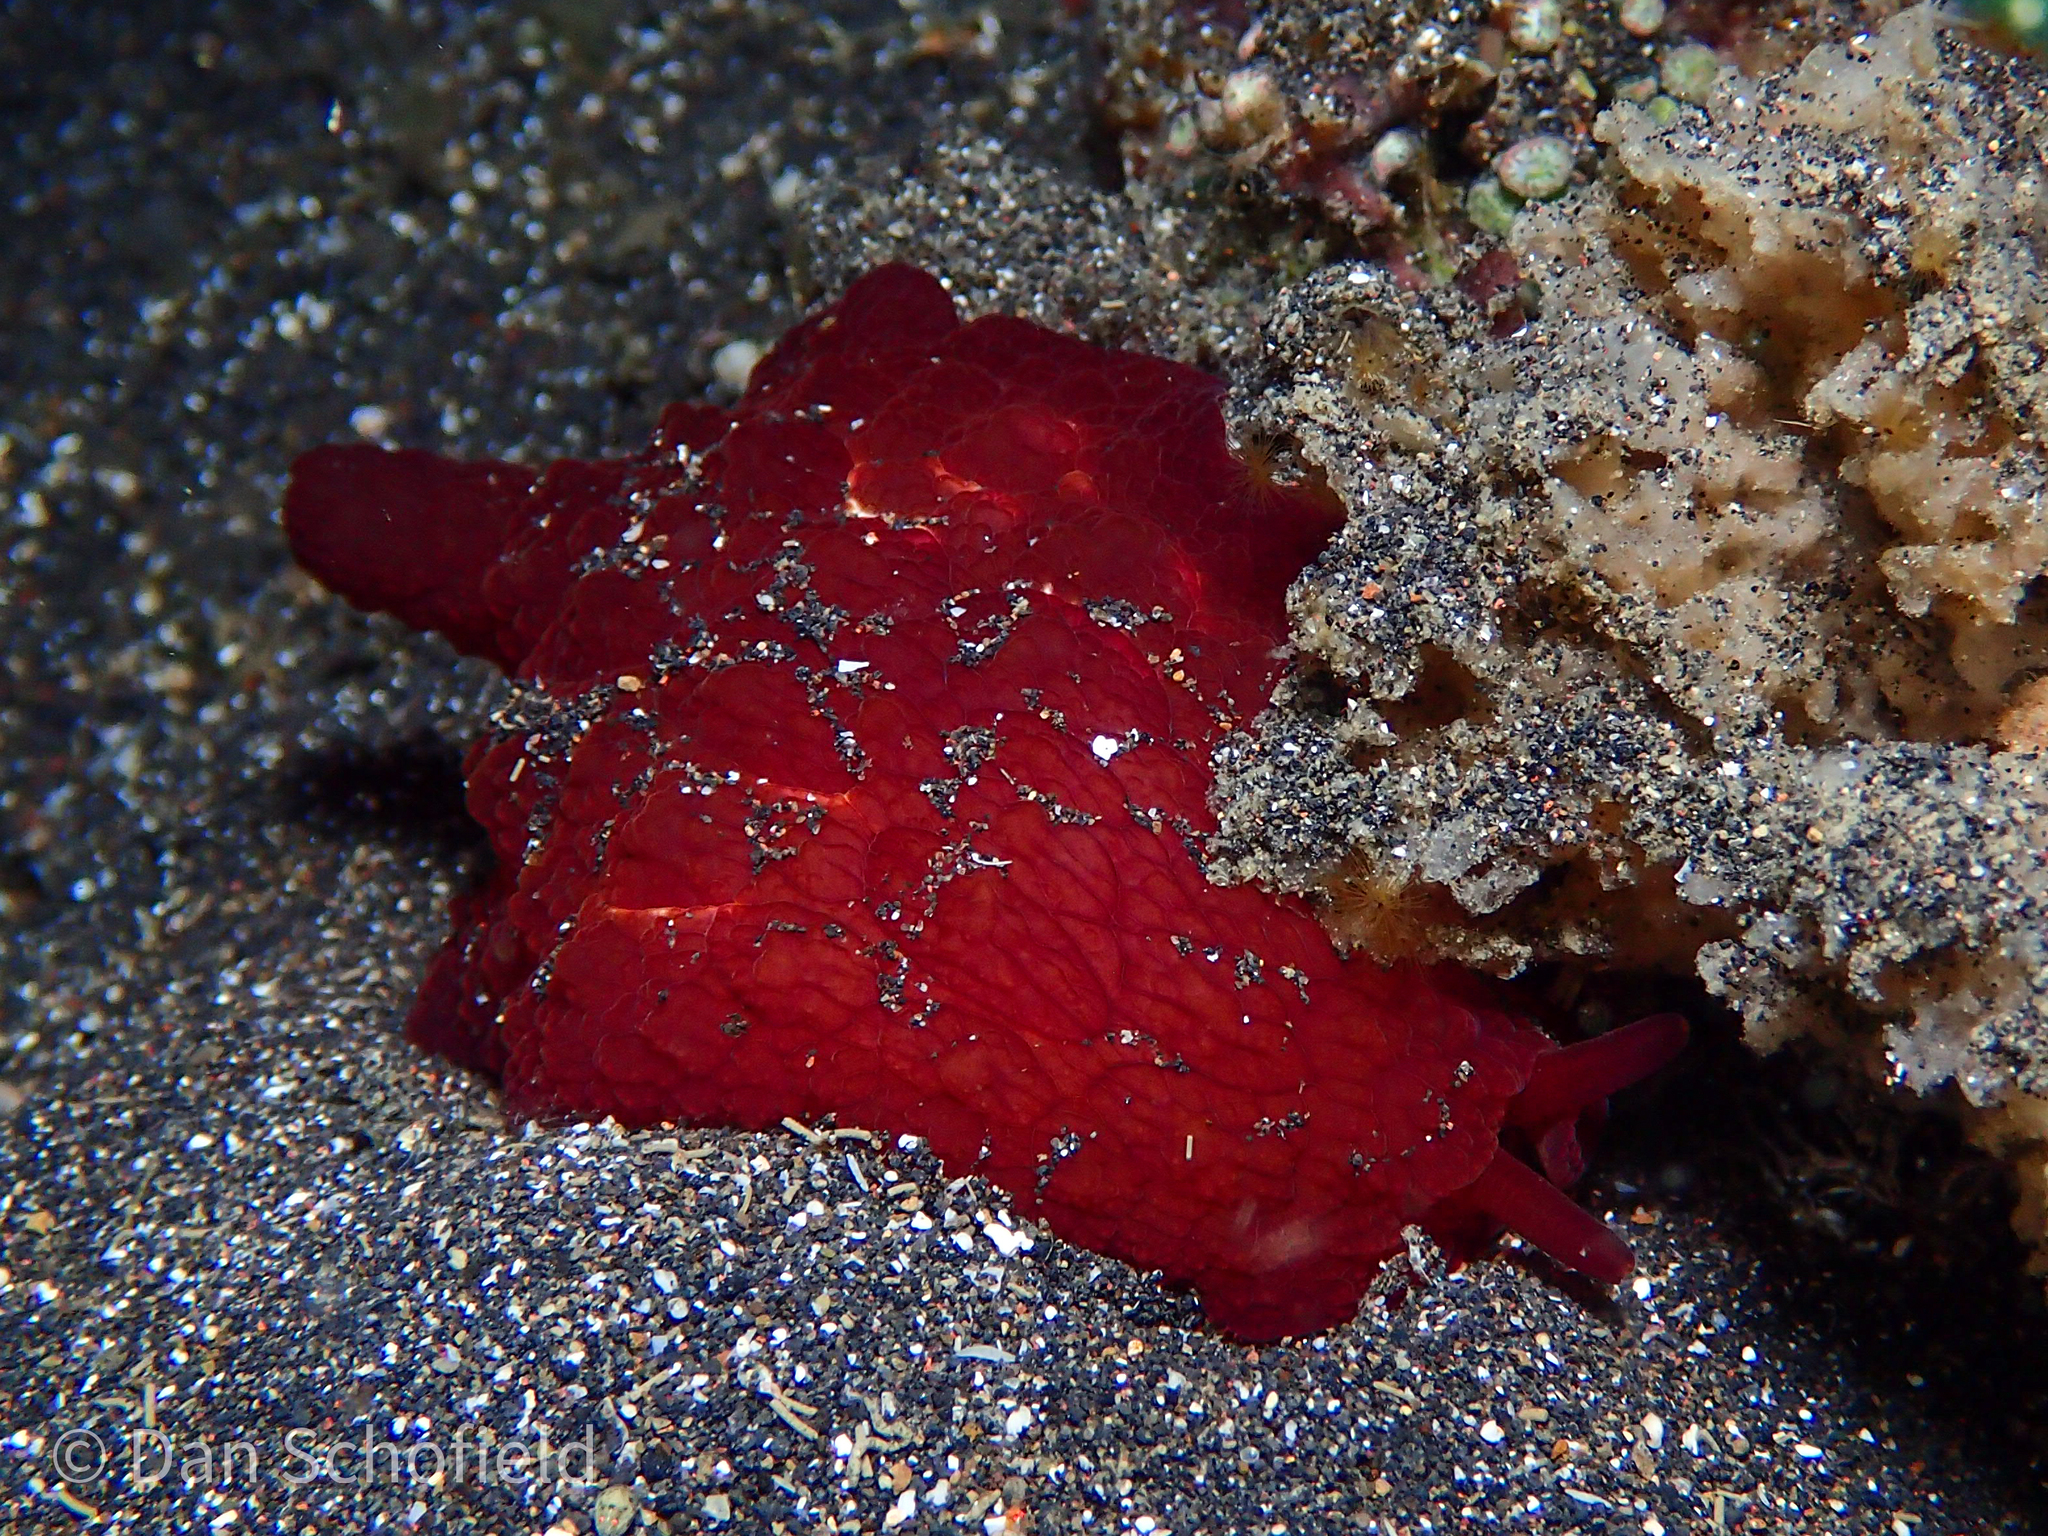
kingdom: Animalia
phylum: Mollusca
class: Gastropoda
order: Pleurobranchida
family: Pleurobranchidae
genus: Pleurobranchus
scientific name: Pleurobranchus forskalii
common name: Forskal's side-gilled sea slug
